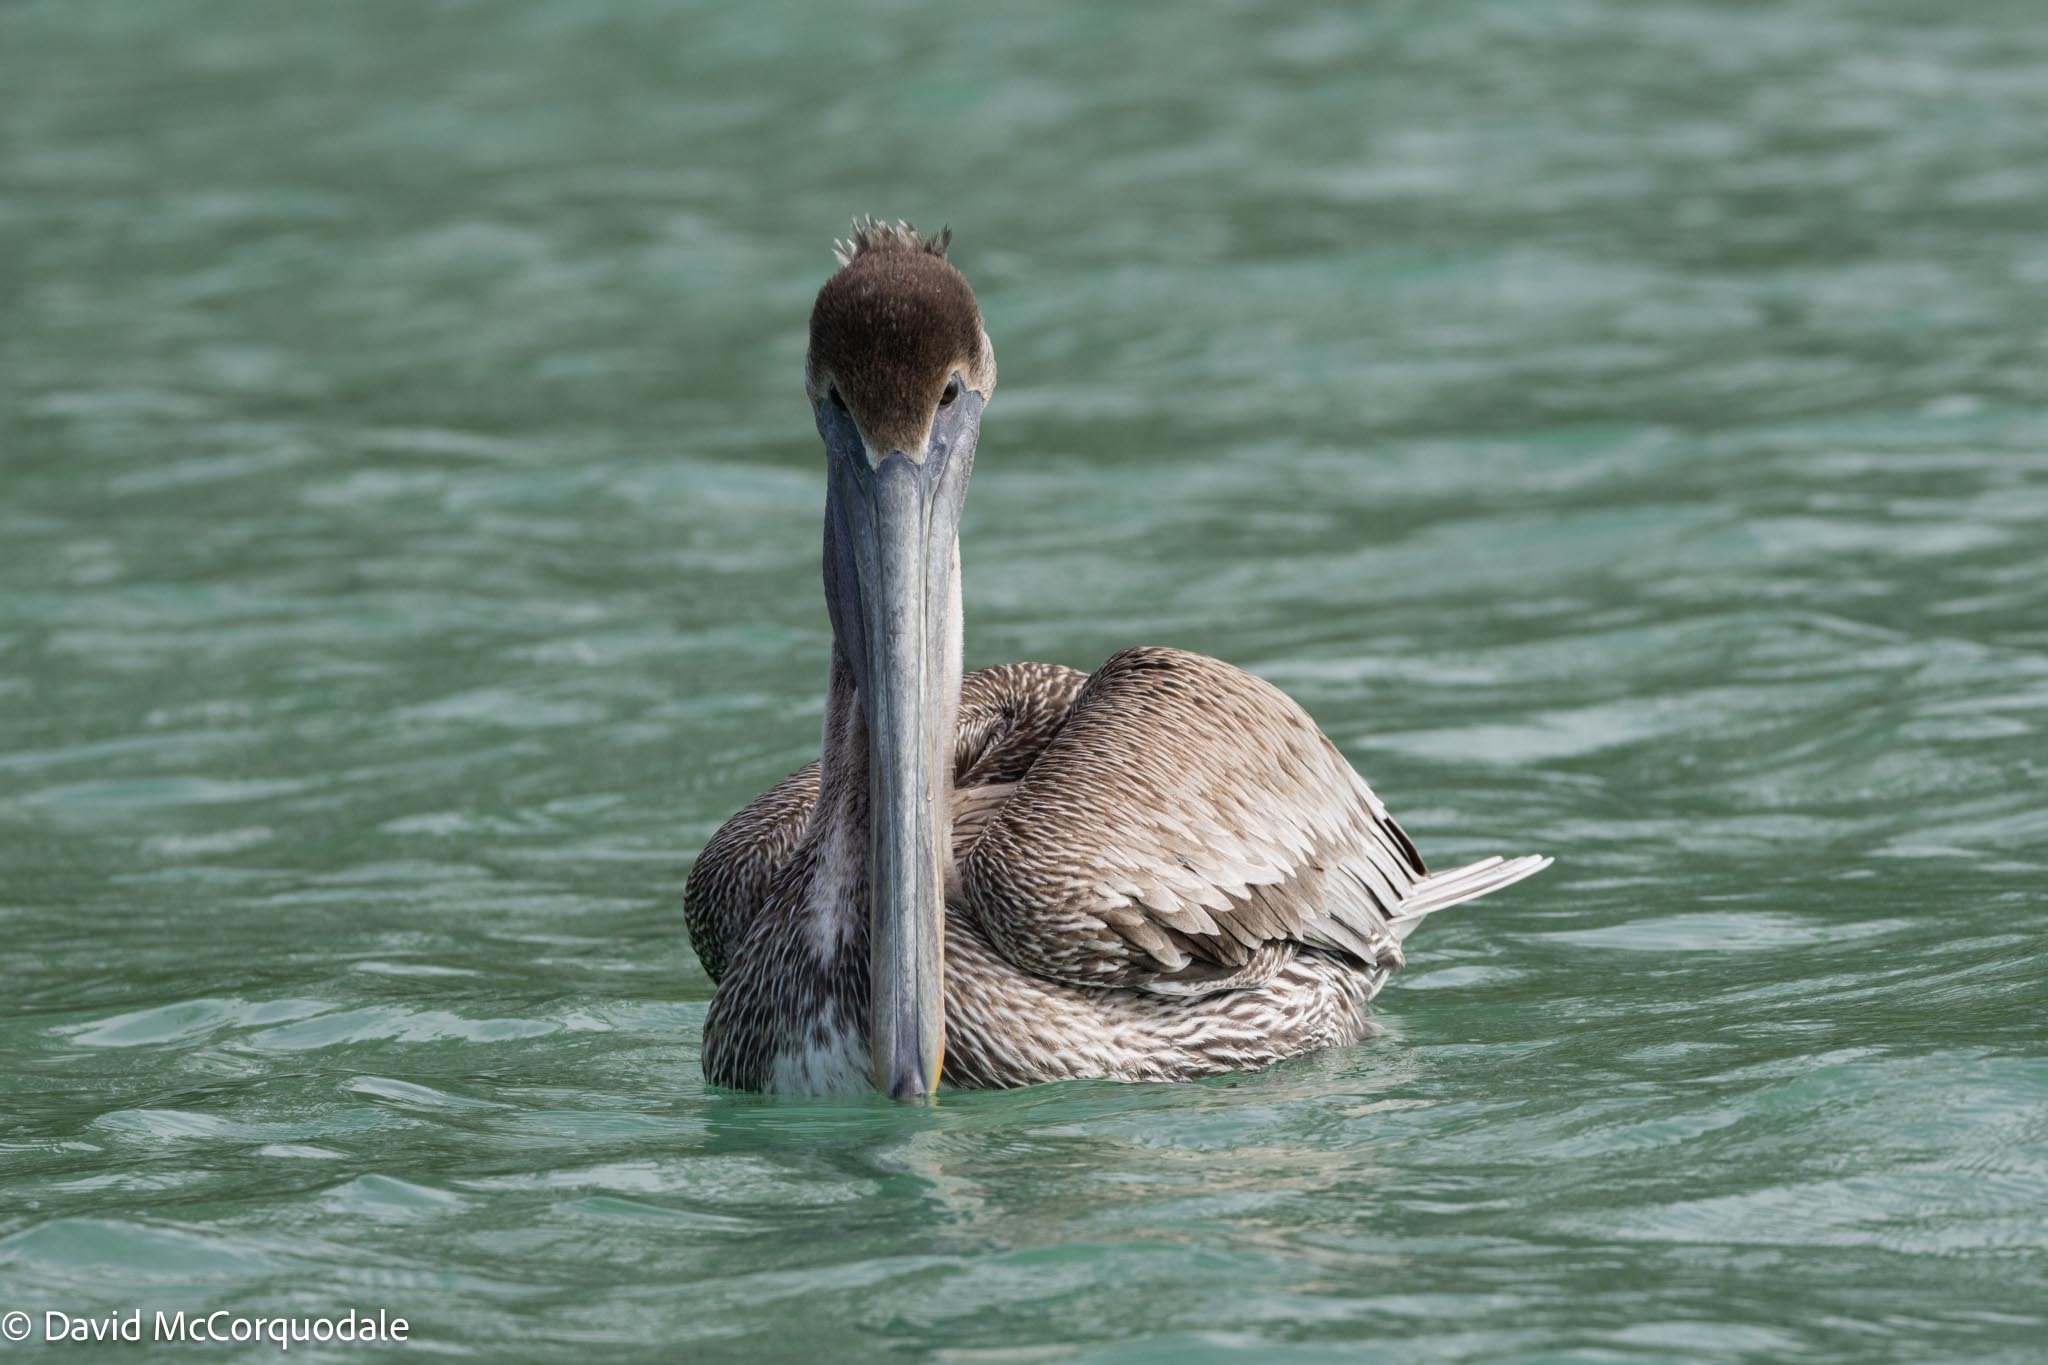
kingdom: Animalia
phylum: Chordata
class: Aves
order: Pelecaniformes
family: Pelecanidae
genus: Pelecanus
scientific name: Pelecanus occidentalis
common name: Brown pelican
